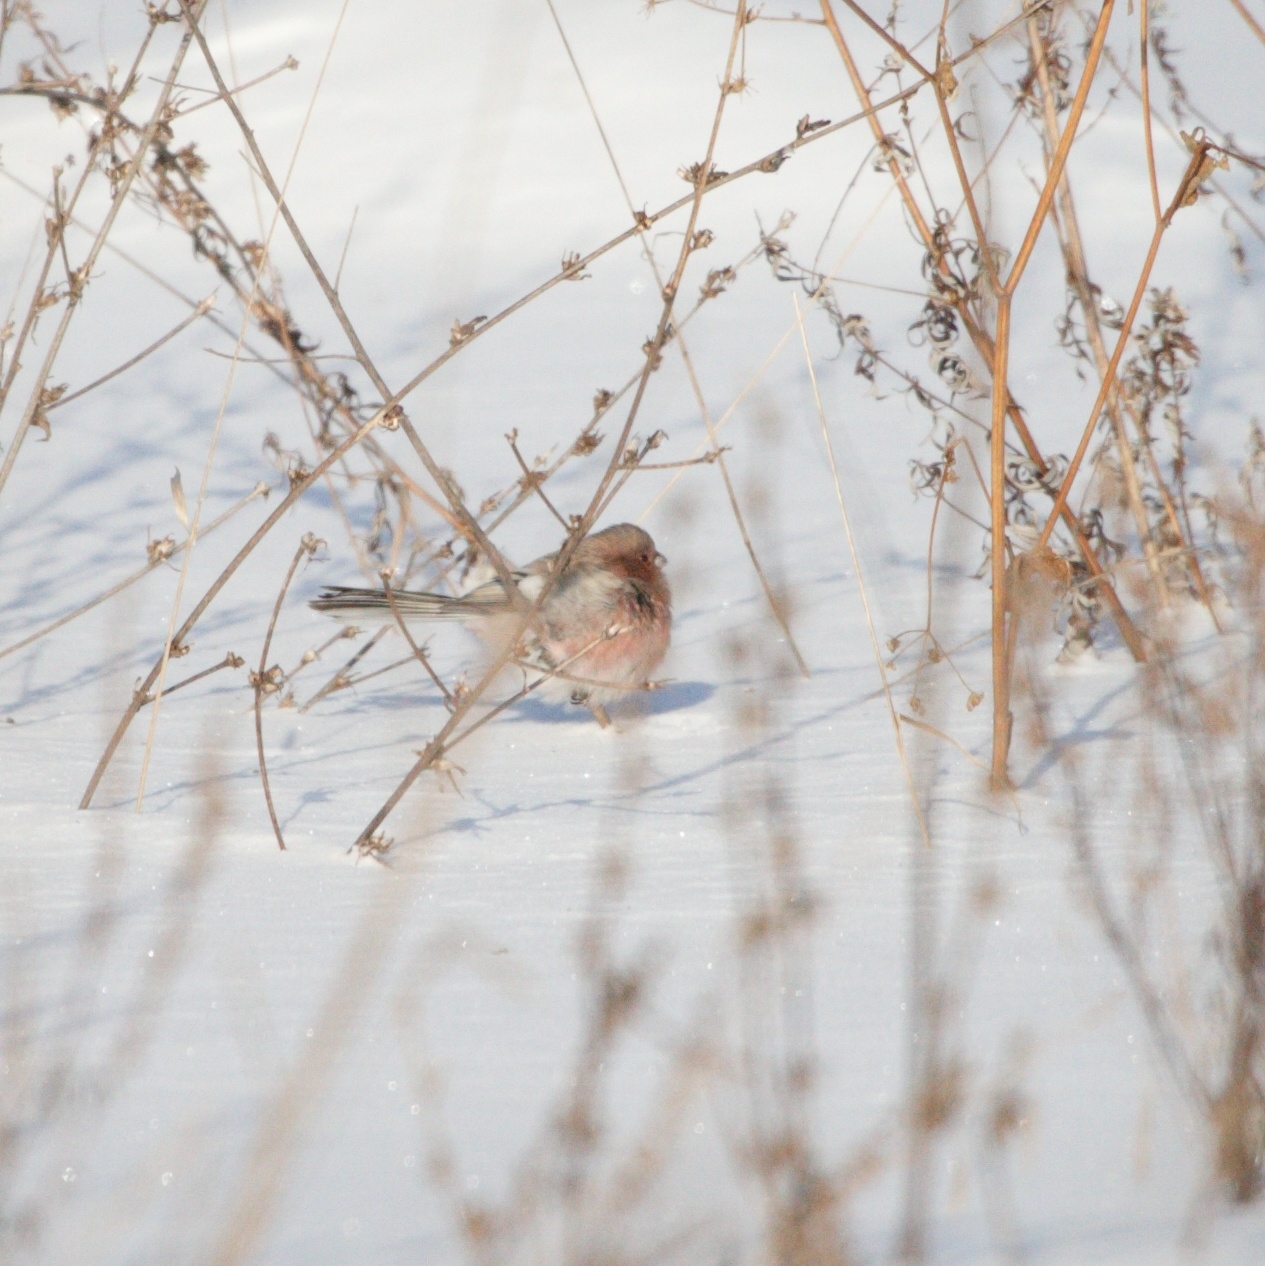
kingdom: Animalia
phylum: Chordata
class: Aves
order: Passeriformes
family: Fringillidae
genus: Carpodacus
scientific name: Carpodacus sibiricus
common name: Long-tailed rosefinch
